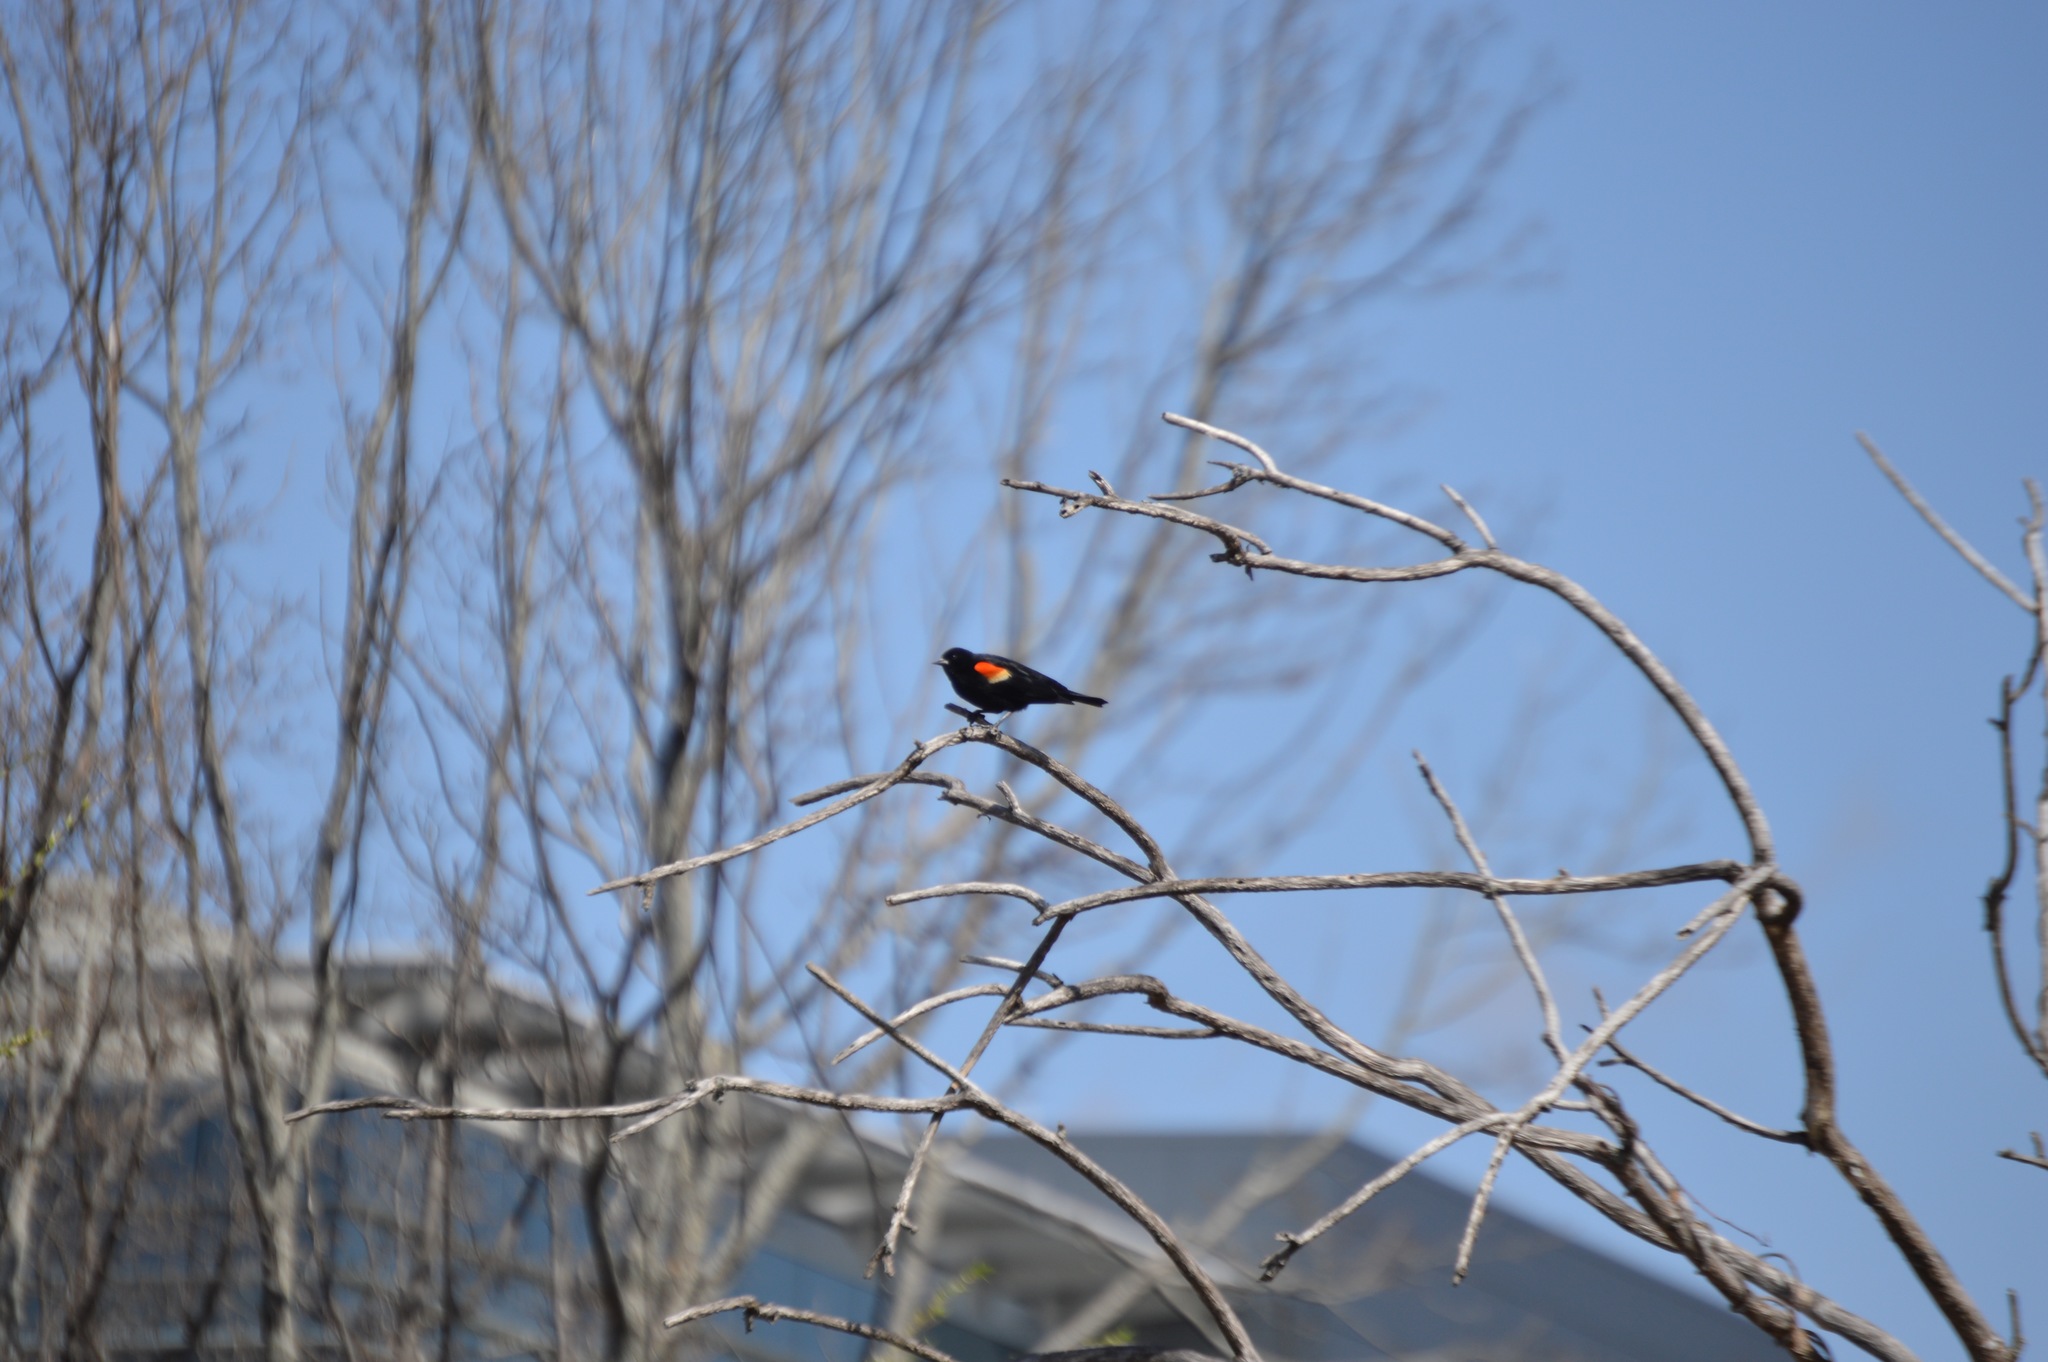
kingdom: Animalia
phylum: Chordata
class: Aves
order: Passeriformes
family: Icteridae
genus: Agelaius
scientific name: Agelaius phoeniceus
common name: Red-winged blackbird
